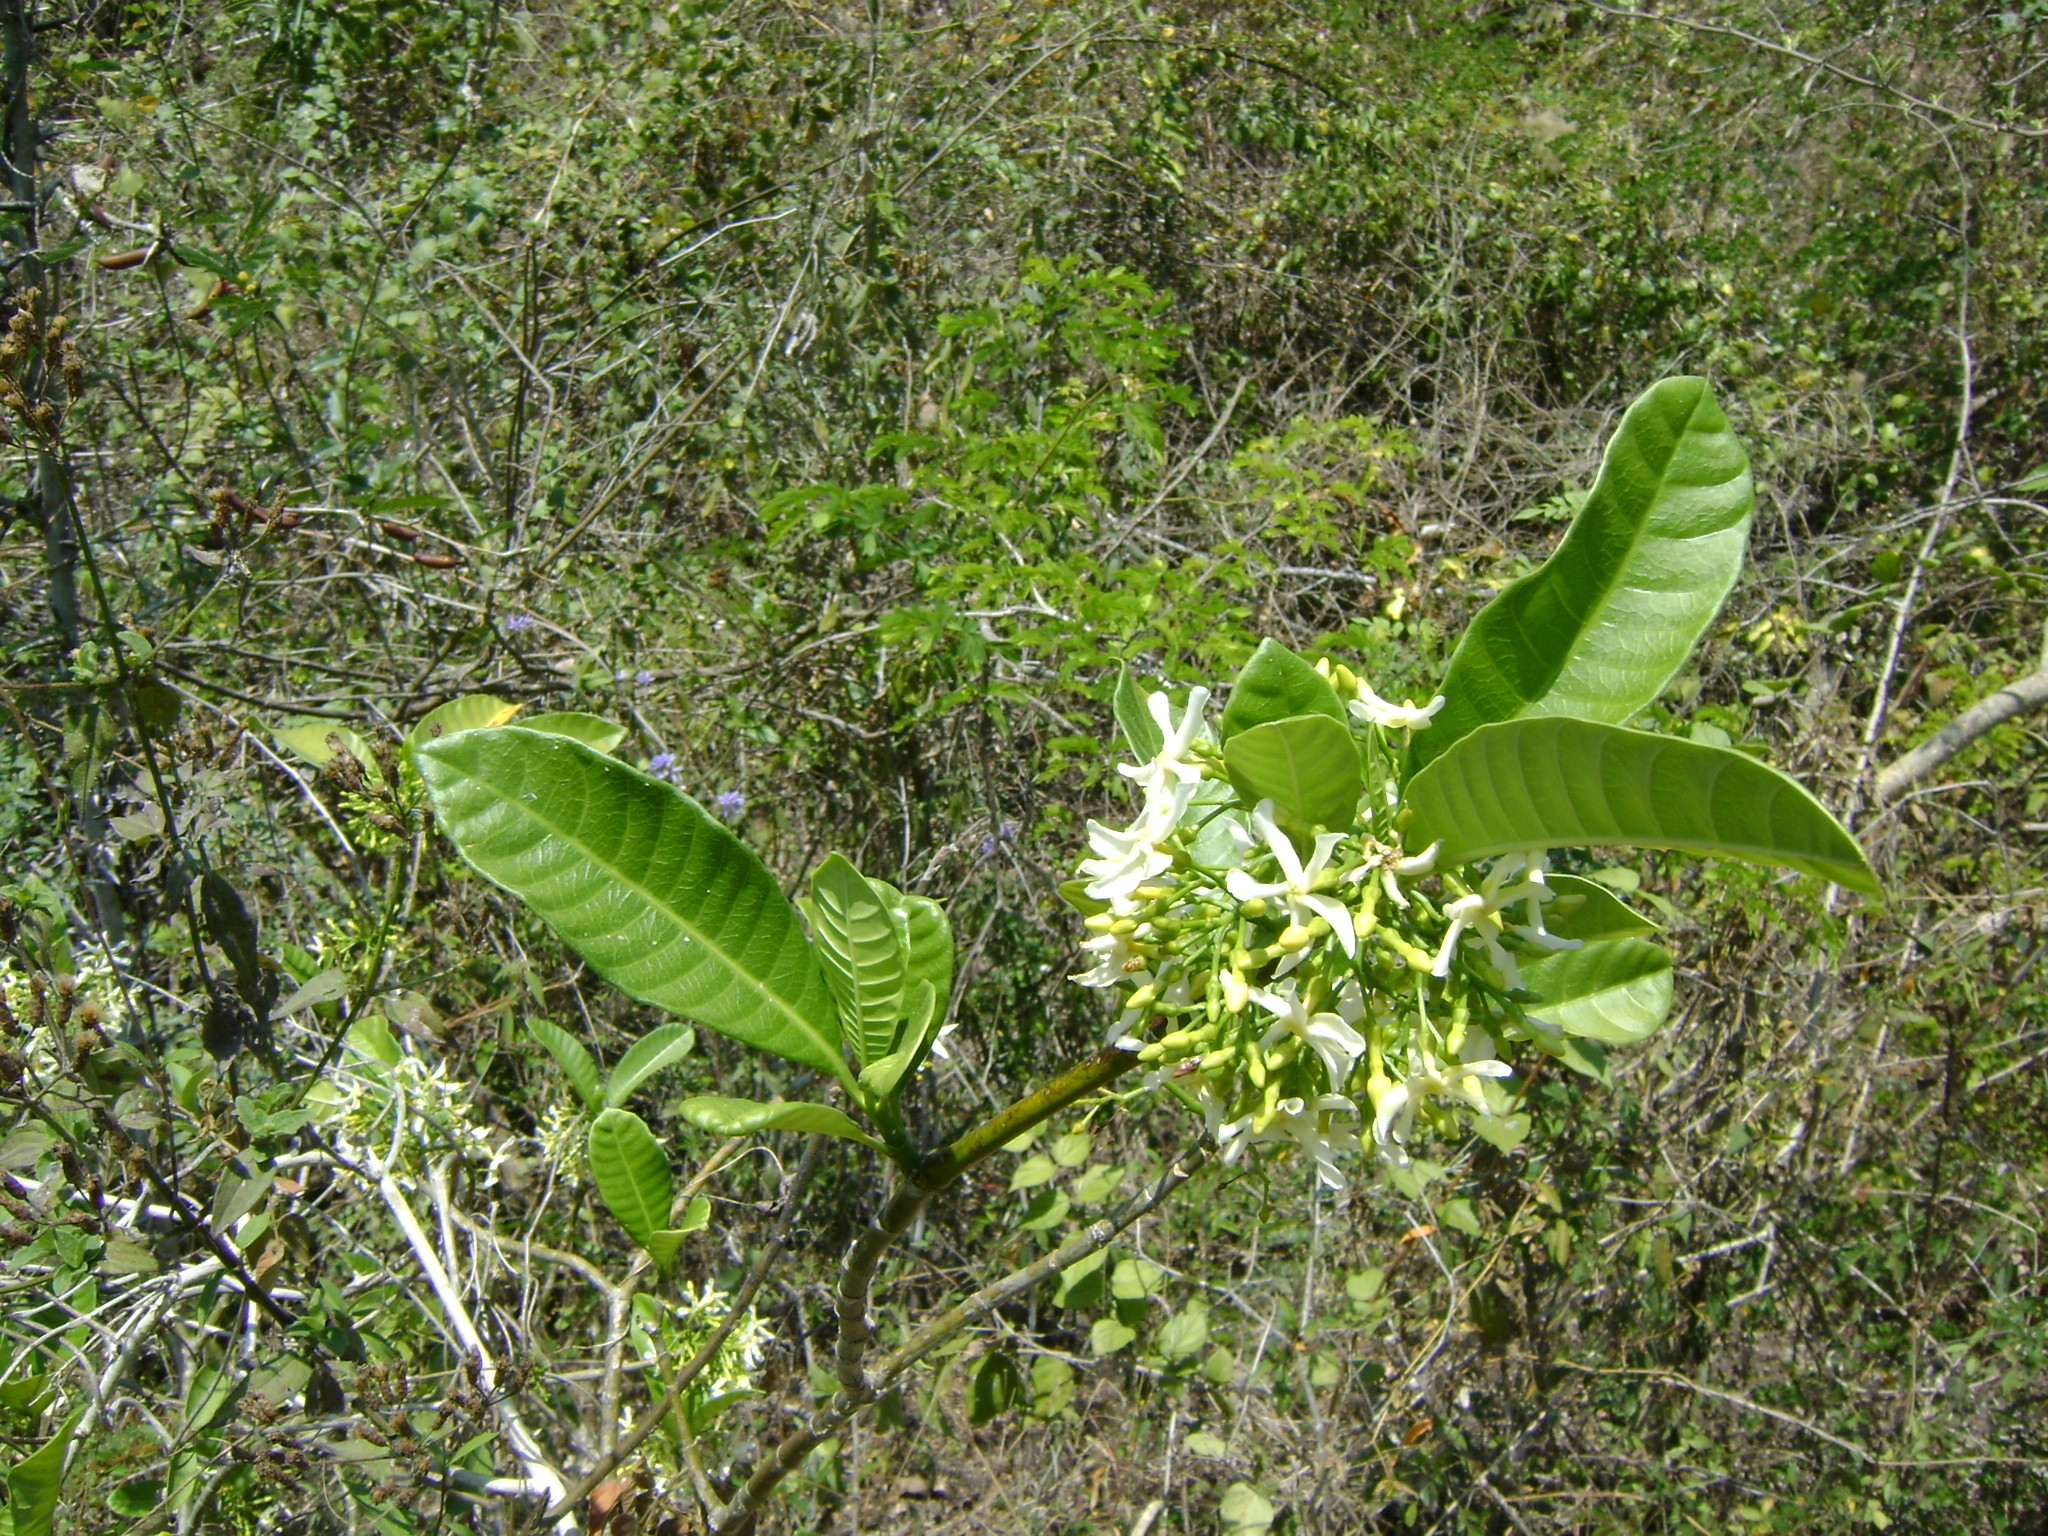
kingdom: Plantae
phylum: Tracheophyta
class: Magnoliopsida
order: Gentianales
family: Apocynaceae
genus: Tabernaemontana
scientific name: Tabernaemontana alba
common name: White milkwood
